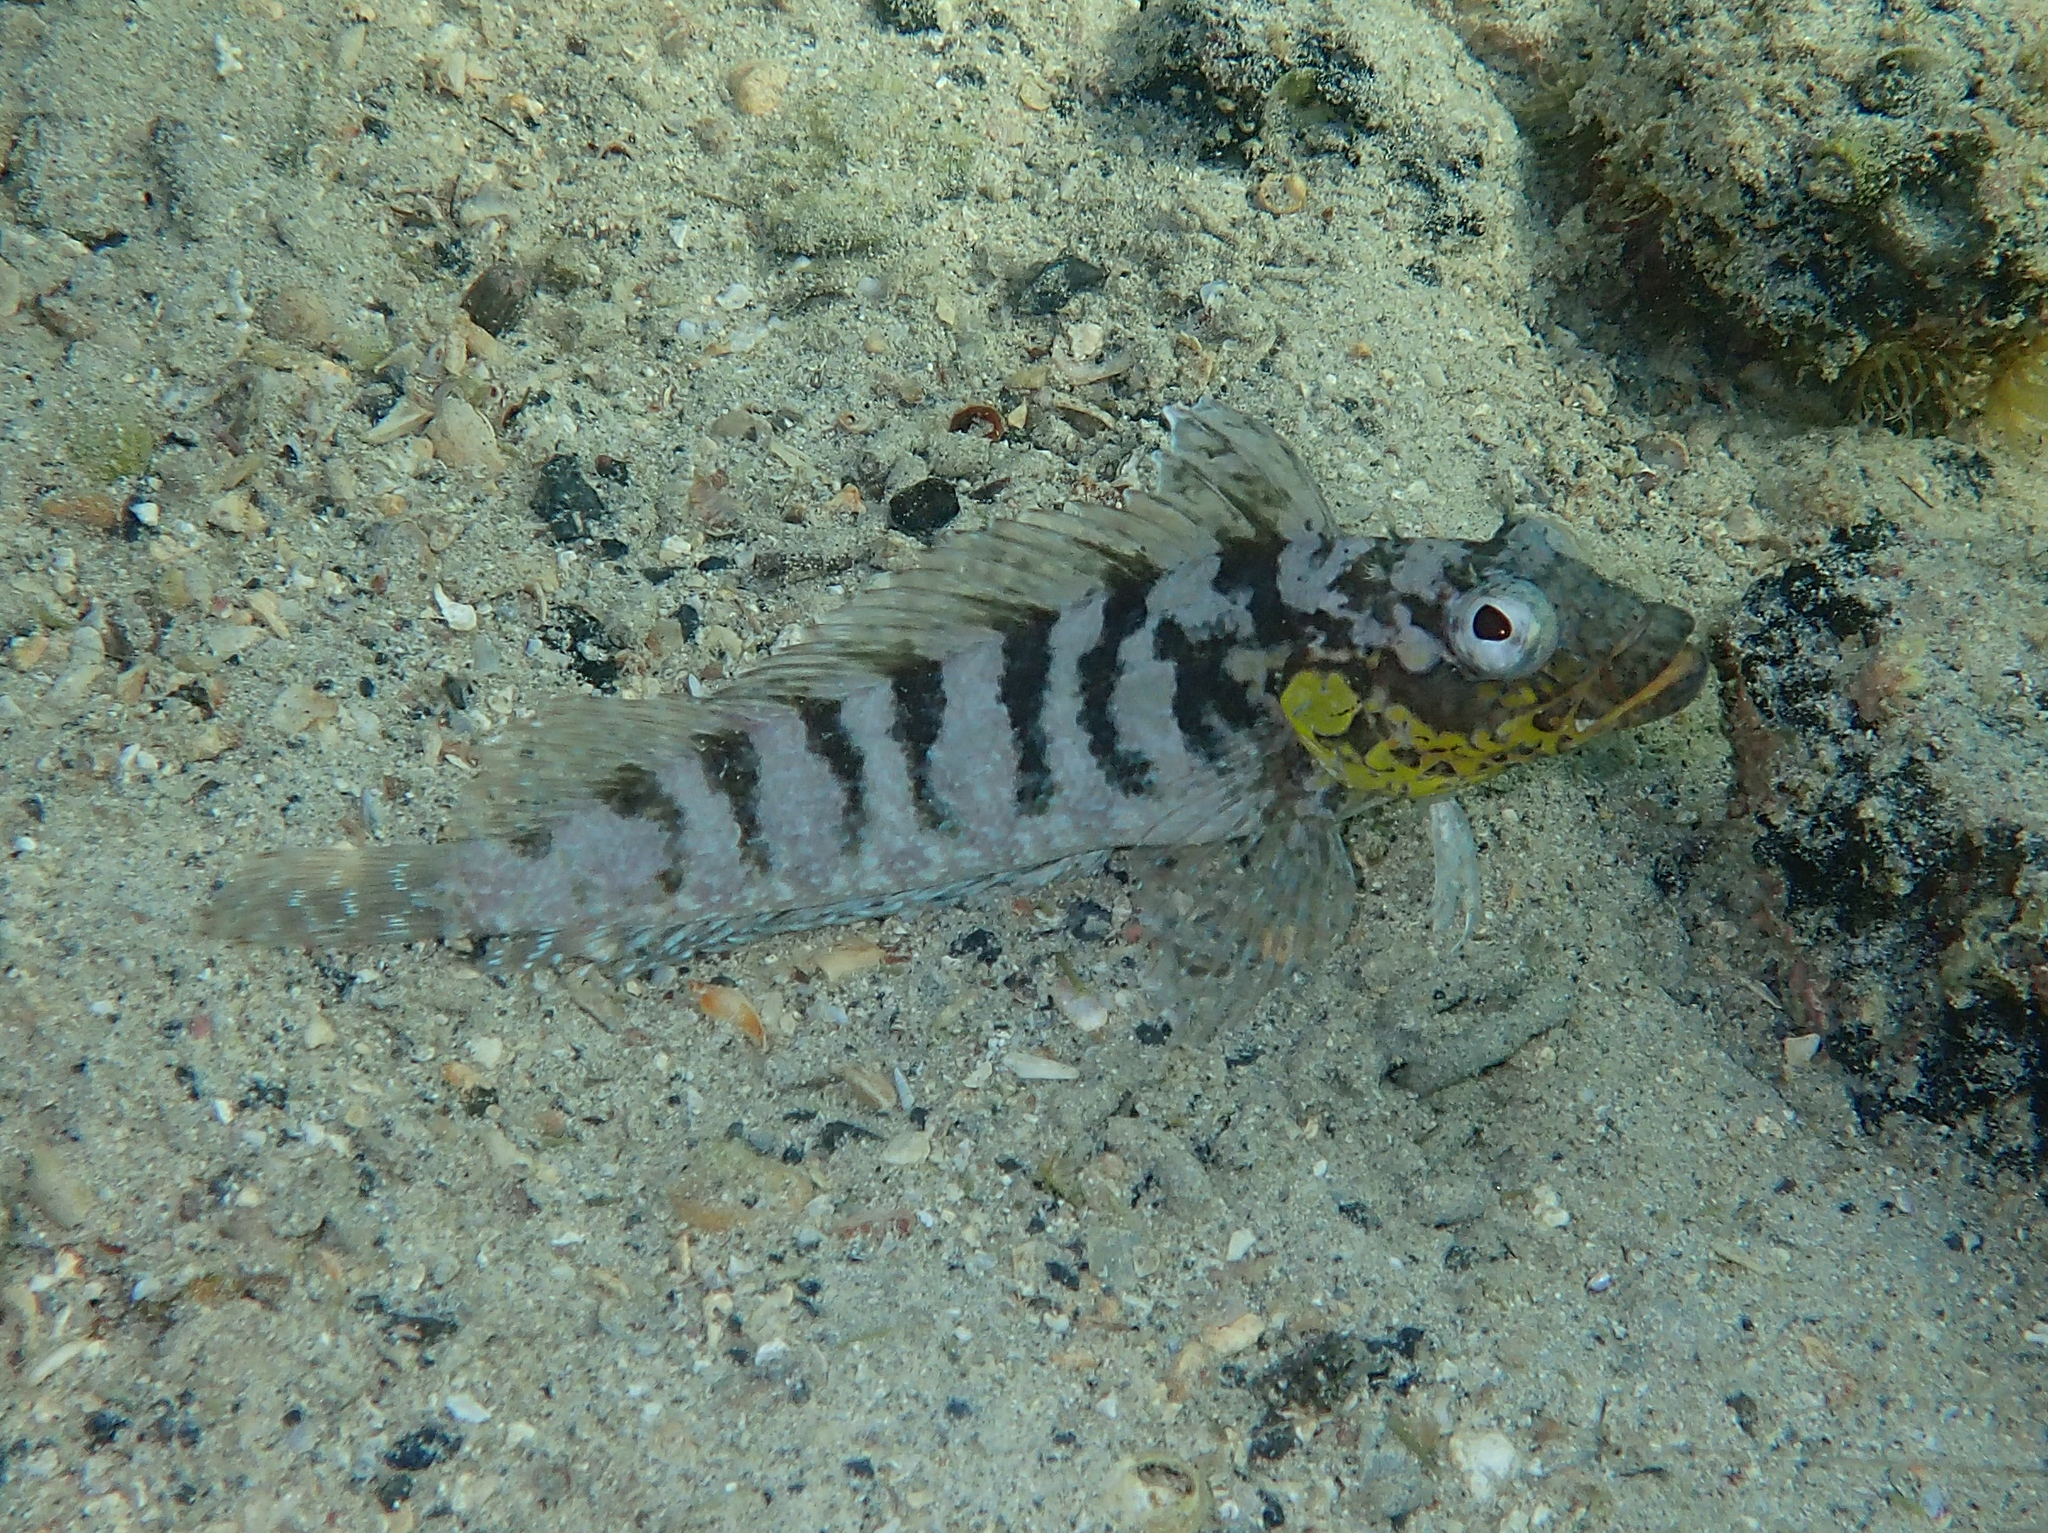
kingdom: Animalia
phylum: Chordata
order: Perciformes
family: Labrisomidae
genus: Gobioclinus
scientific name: Gobioclinus dendriticus
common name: Bravo clinid
